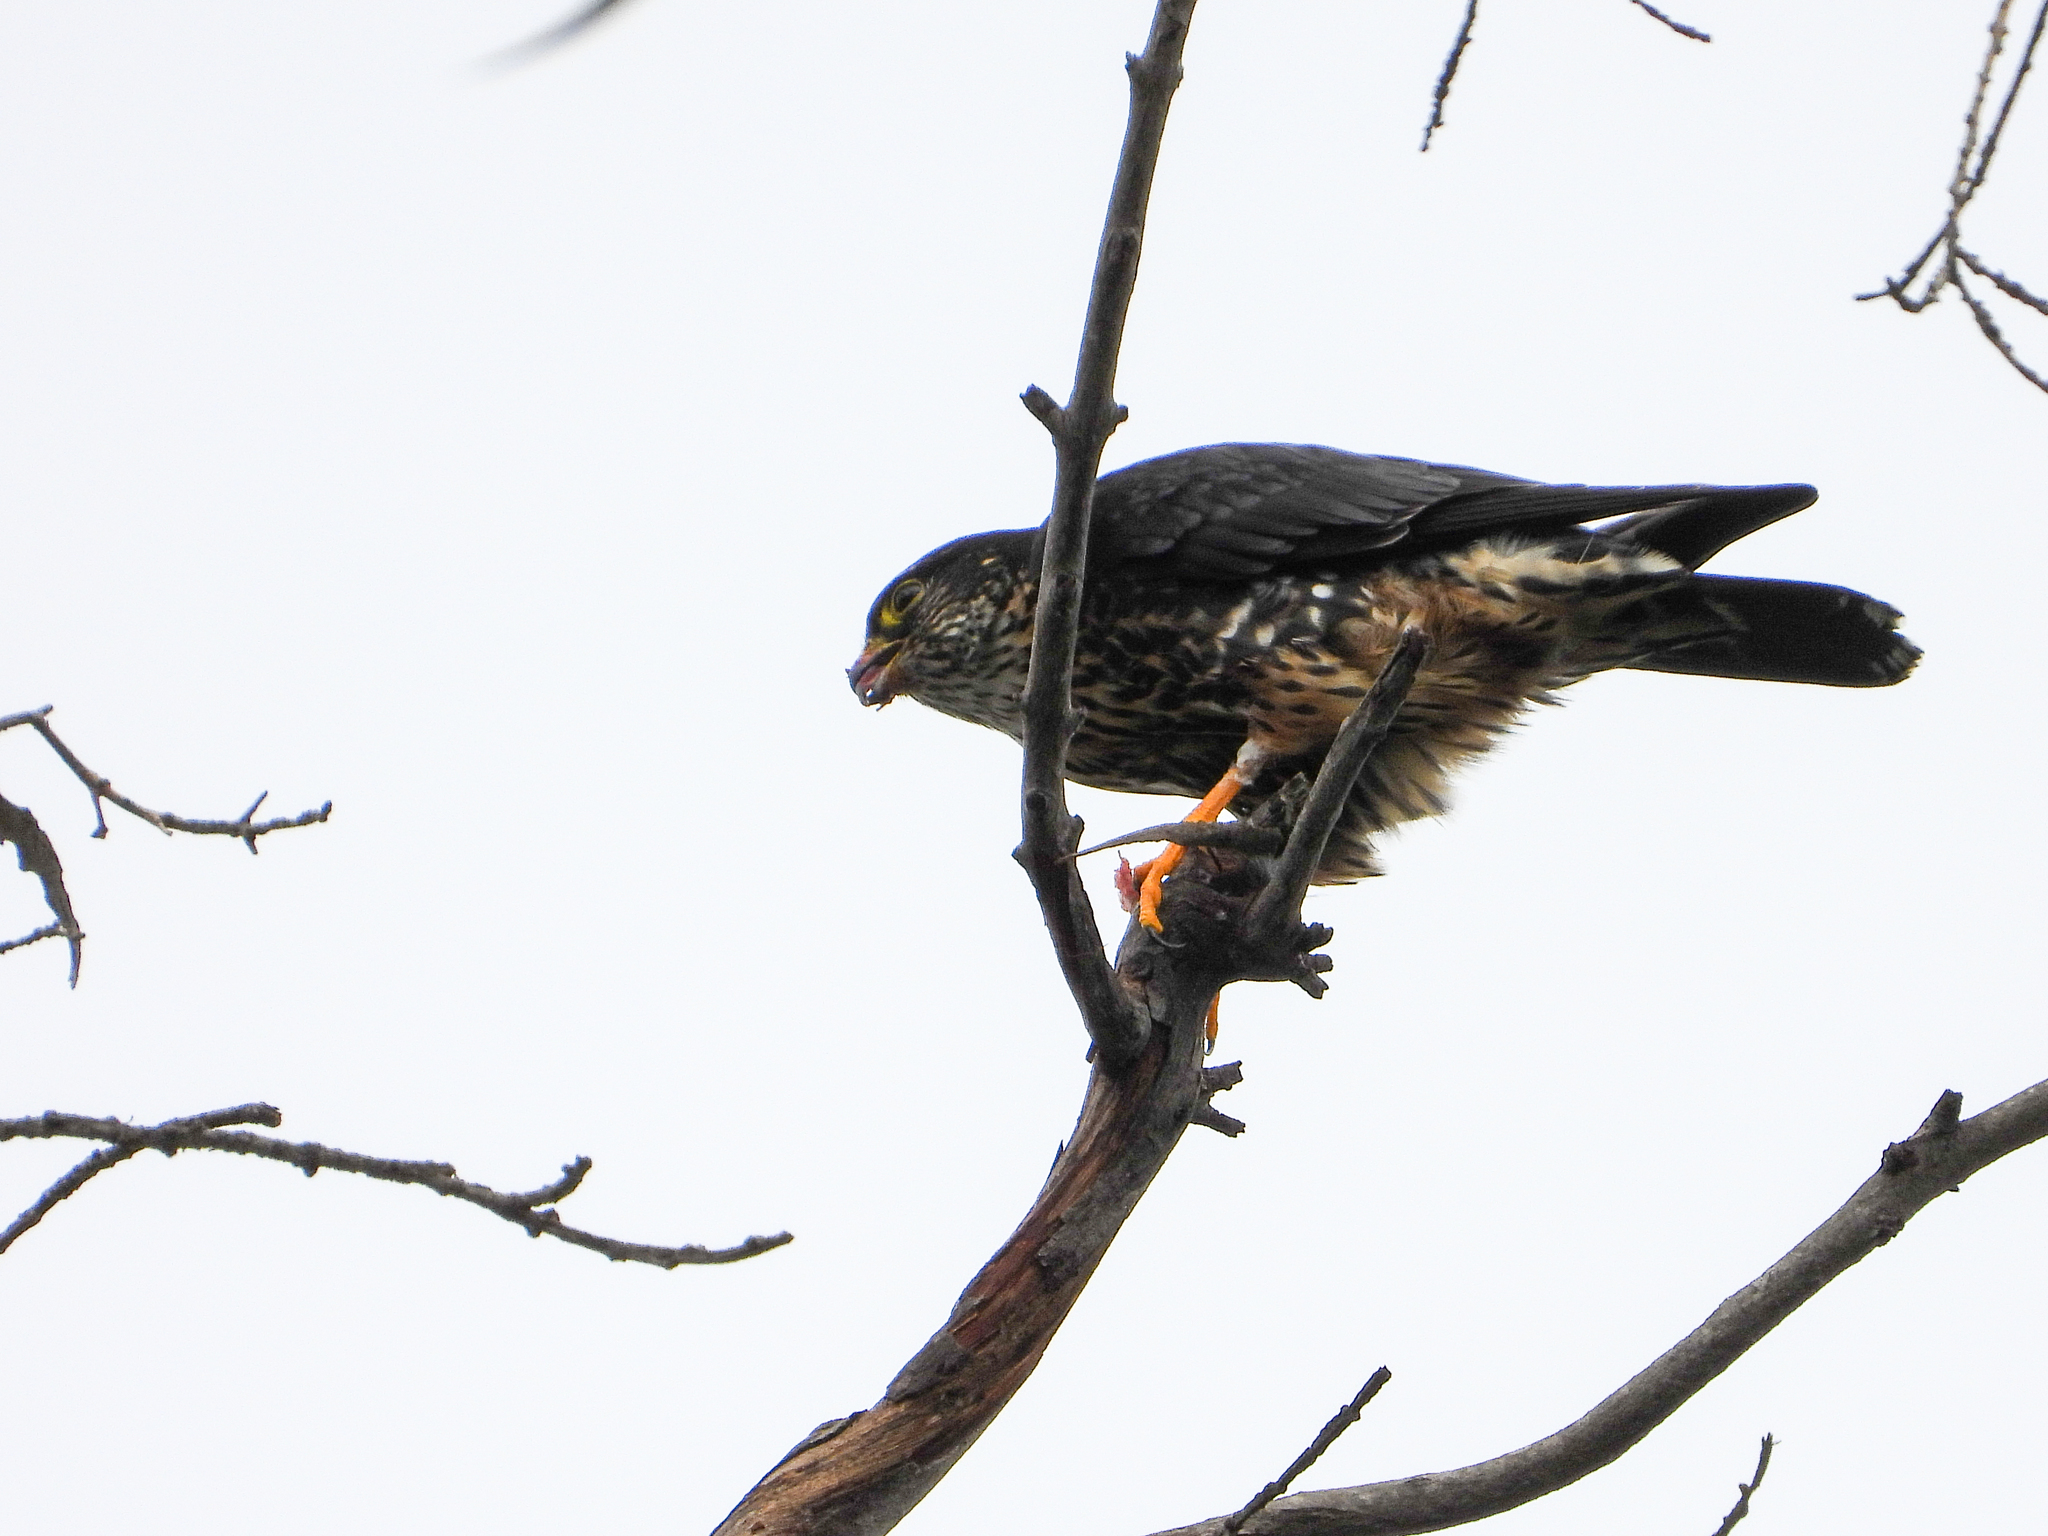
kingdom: Animalia
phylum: Chordata
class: Aves
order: Falconiformes
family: Falconidae
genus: Falco
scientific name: Falco columbarius
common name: Merlin
